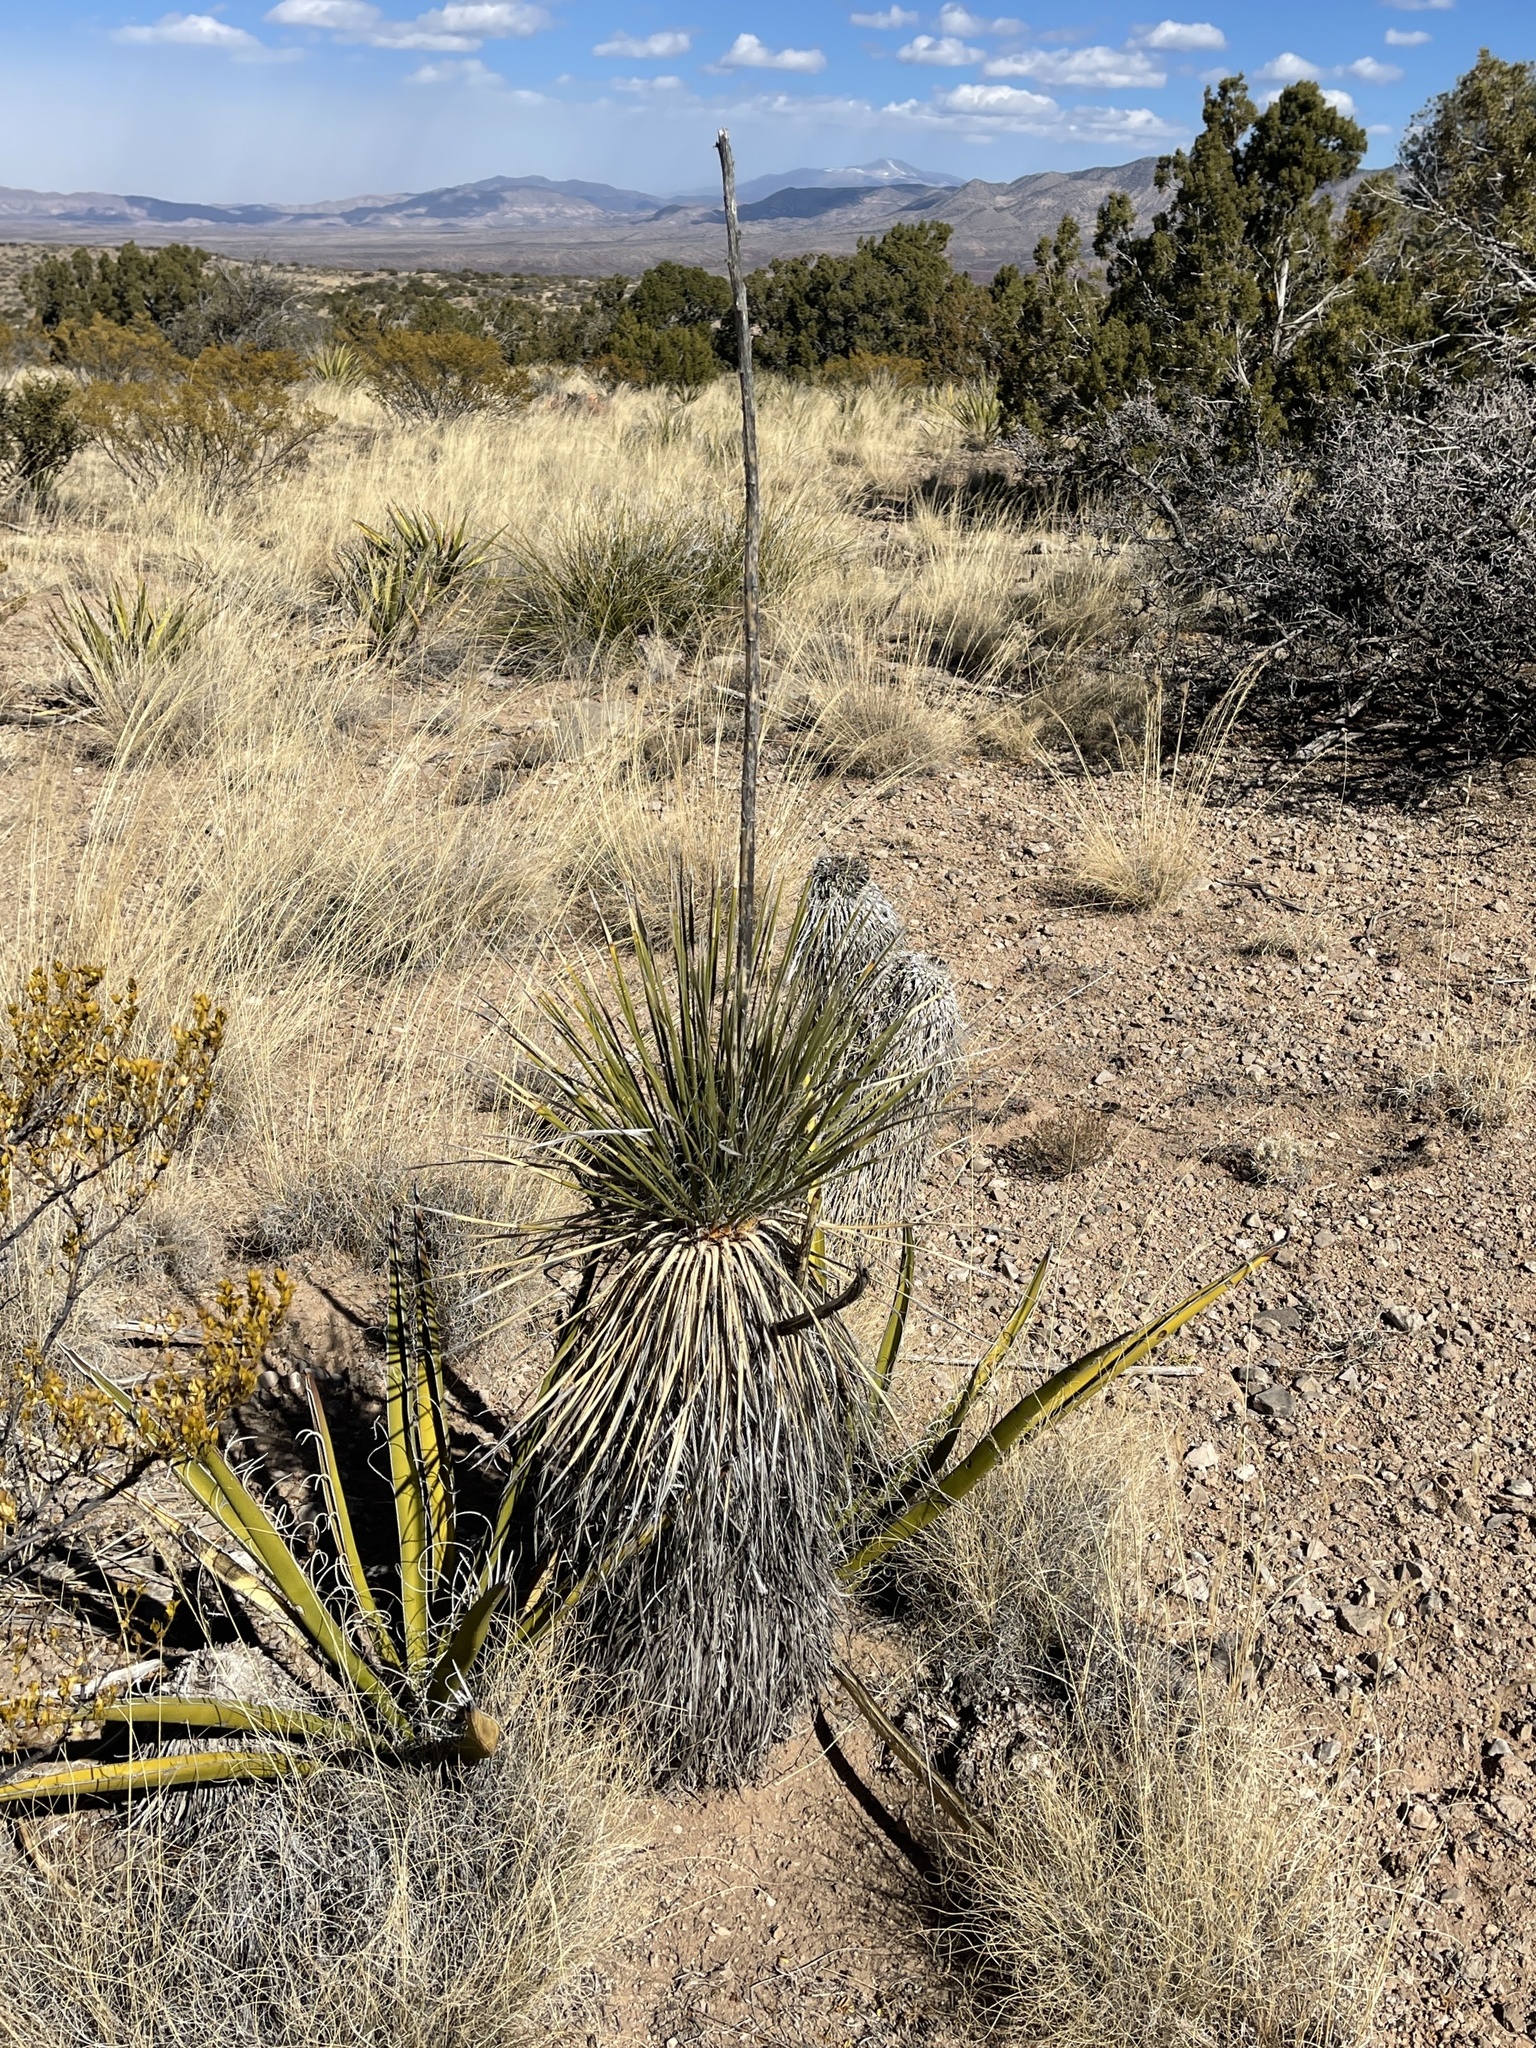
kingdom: Plantae
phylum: Tracheophyta
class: Liliopsida
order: Asparagales
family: Asparagaceae
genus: Yucca
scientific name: Yucca elata
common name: Palmella
